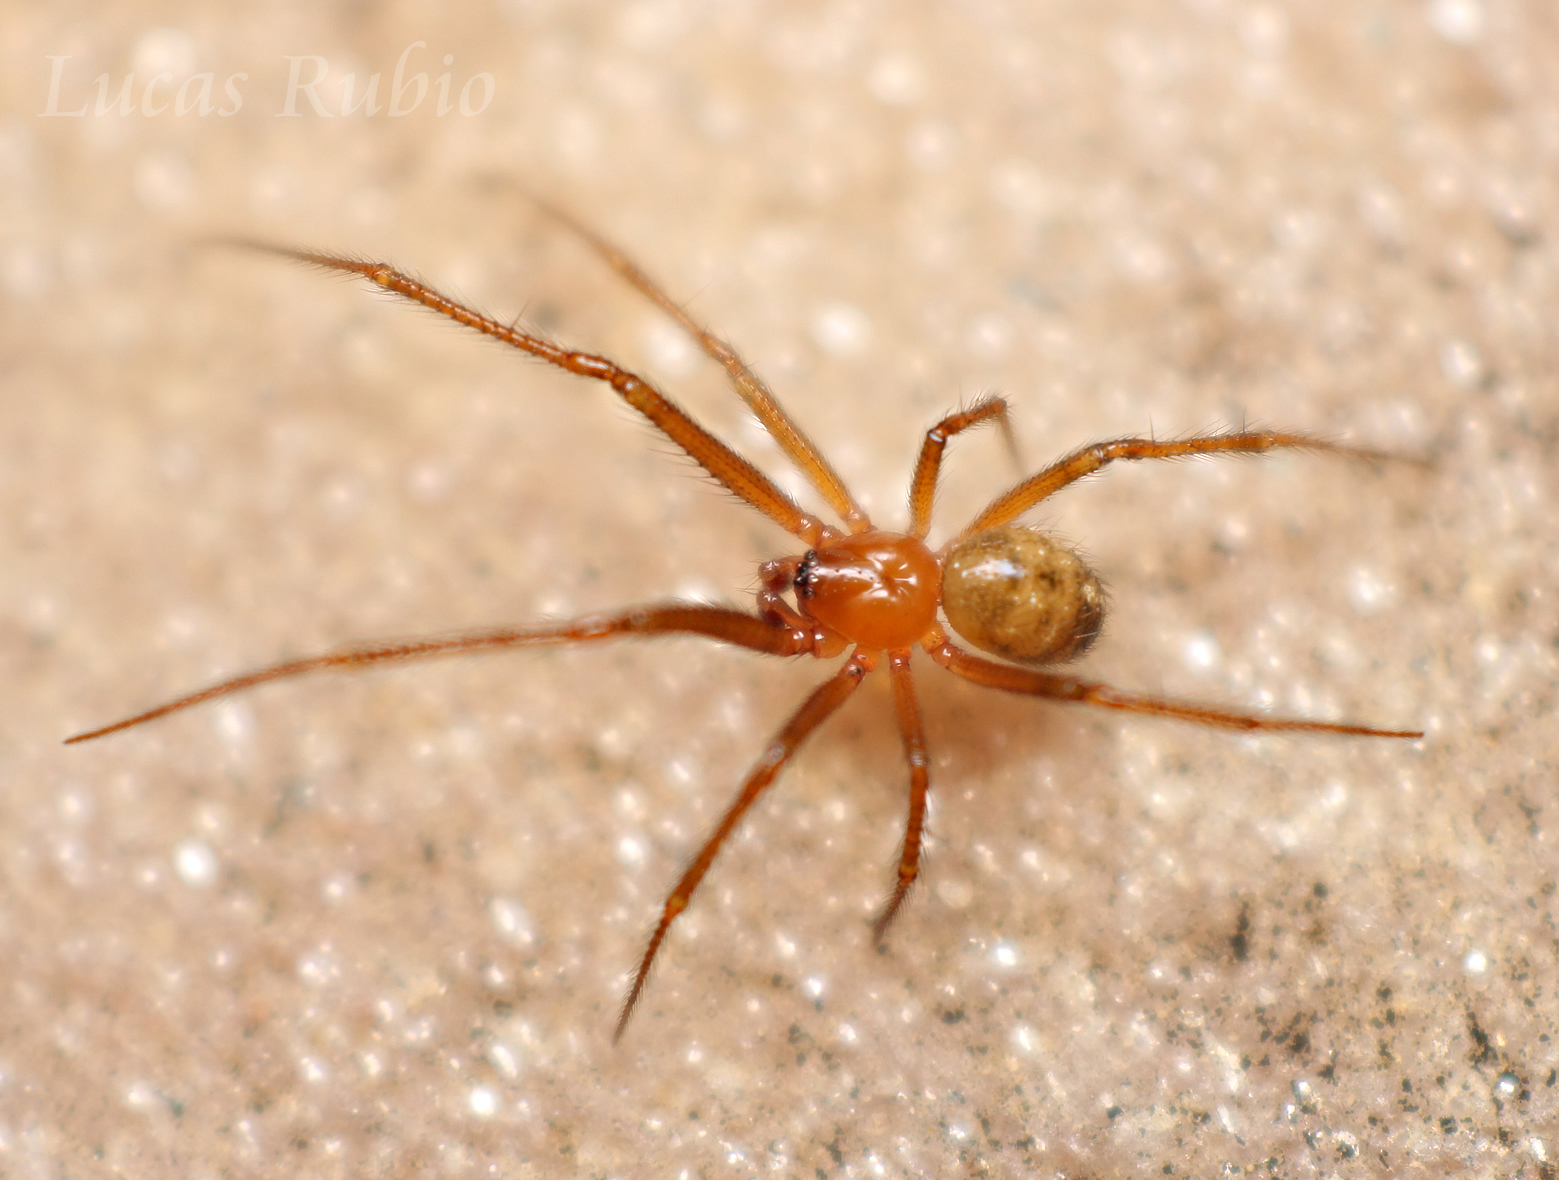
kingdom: Animalia
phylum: Arthropoda
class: Arachnida
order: Araneae
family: Theridiidae
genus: Nesticodes
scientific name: Nesticodes rufipes
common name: Cobweb spiders
